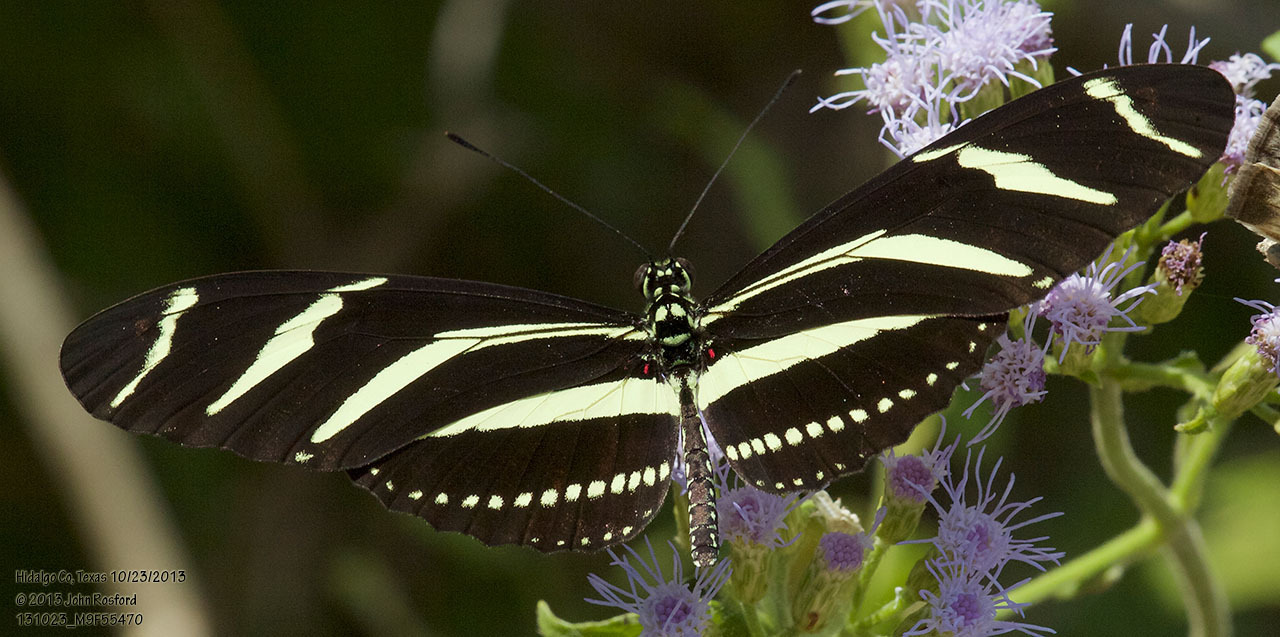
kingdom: Animalia
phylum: Arthropoda
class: Insecta
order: Lepidoptera
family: Nymphalidae
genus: Heliconius
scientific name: Heliconius charithonia
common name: Zebra long wing
